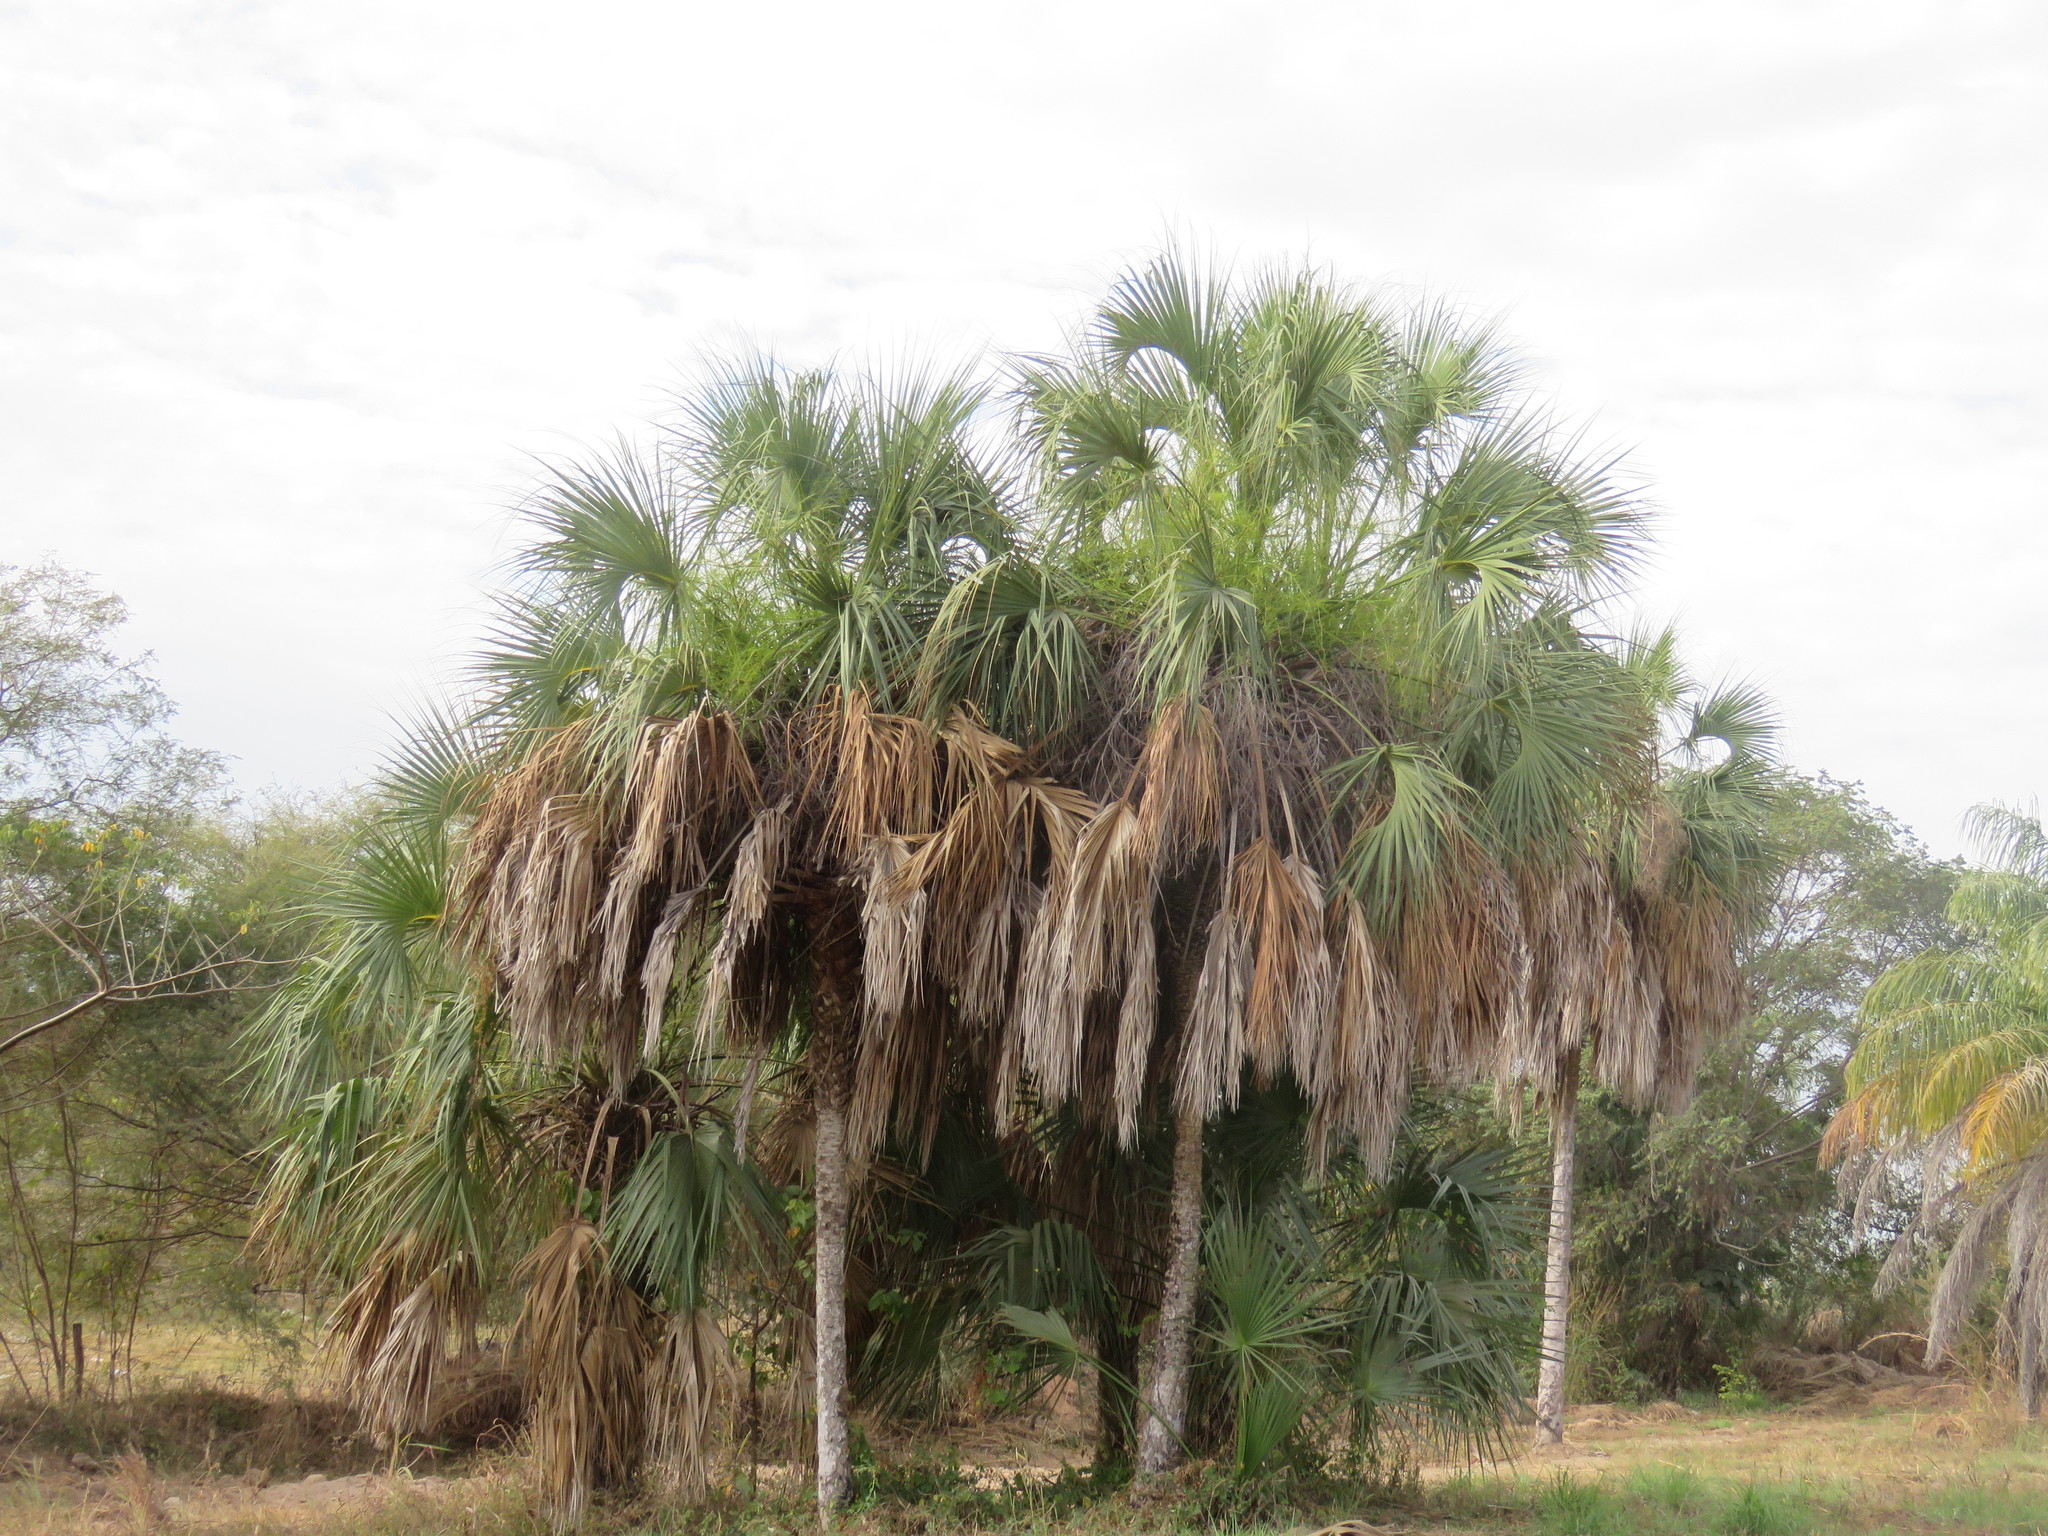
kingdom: Plantae
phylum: Tracheophyta
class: Liliopsida
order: Arecales
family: Arecaceae
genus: Sabal
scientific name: Sabal mexicana
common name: Texas palmetto
